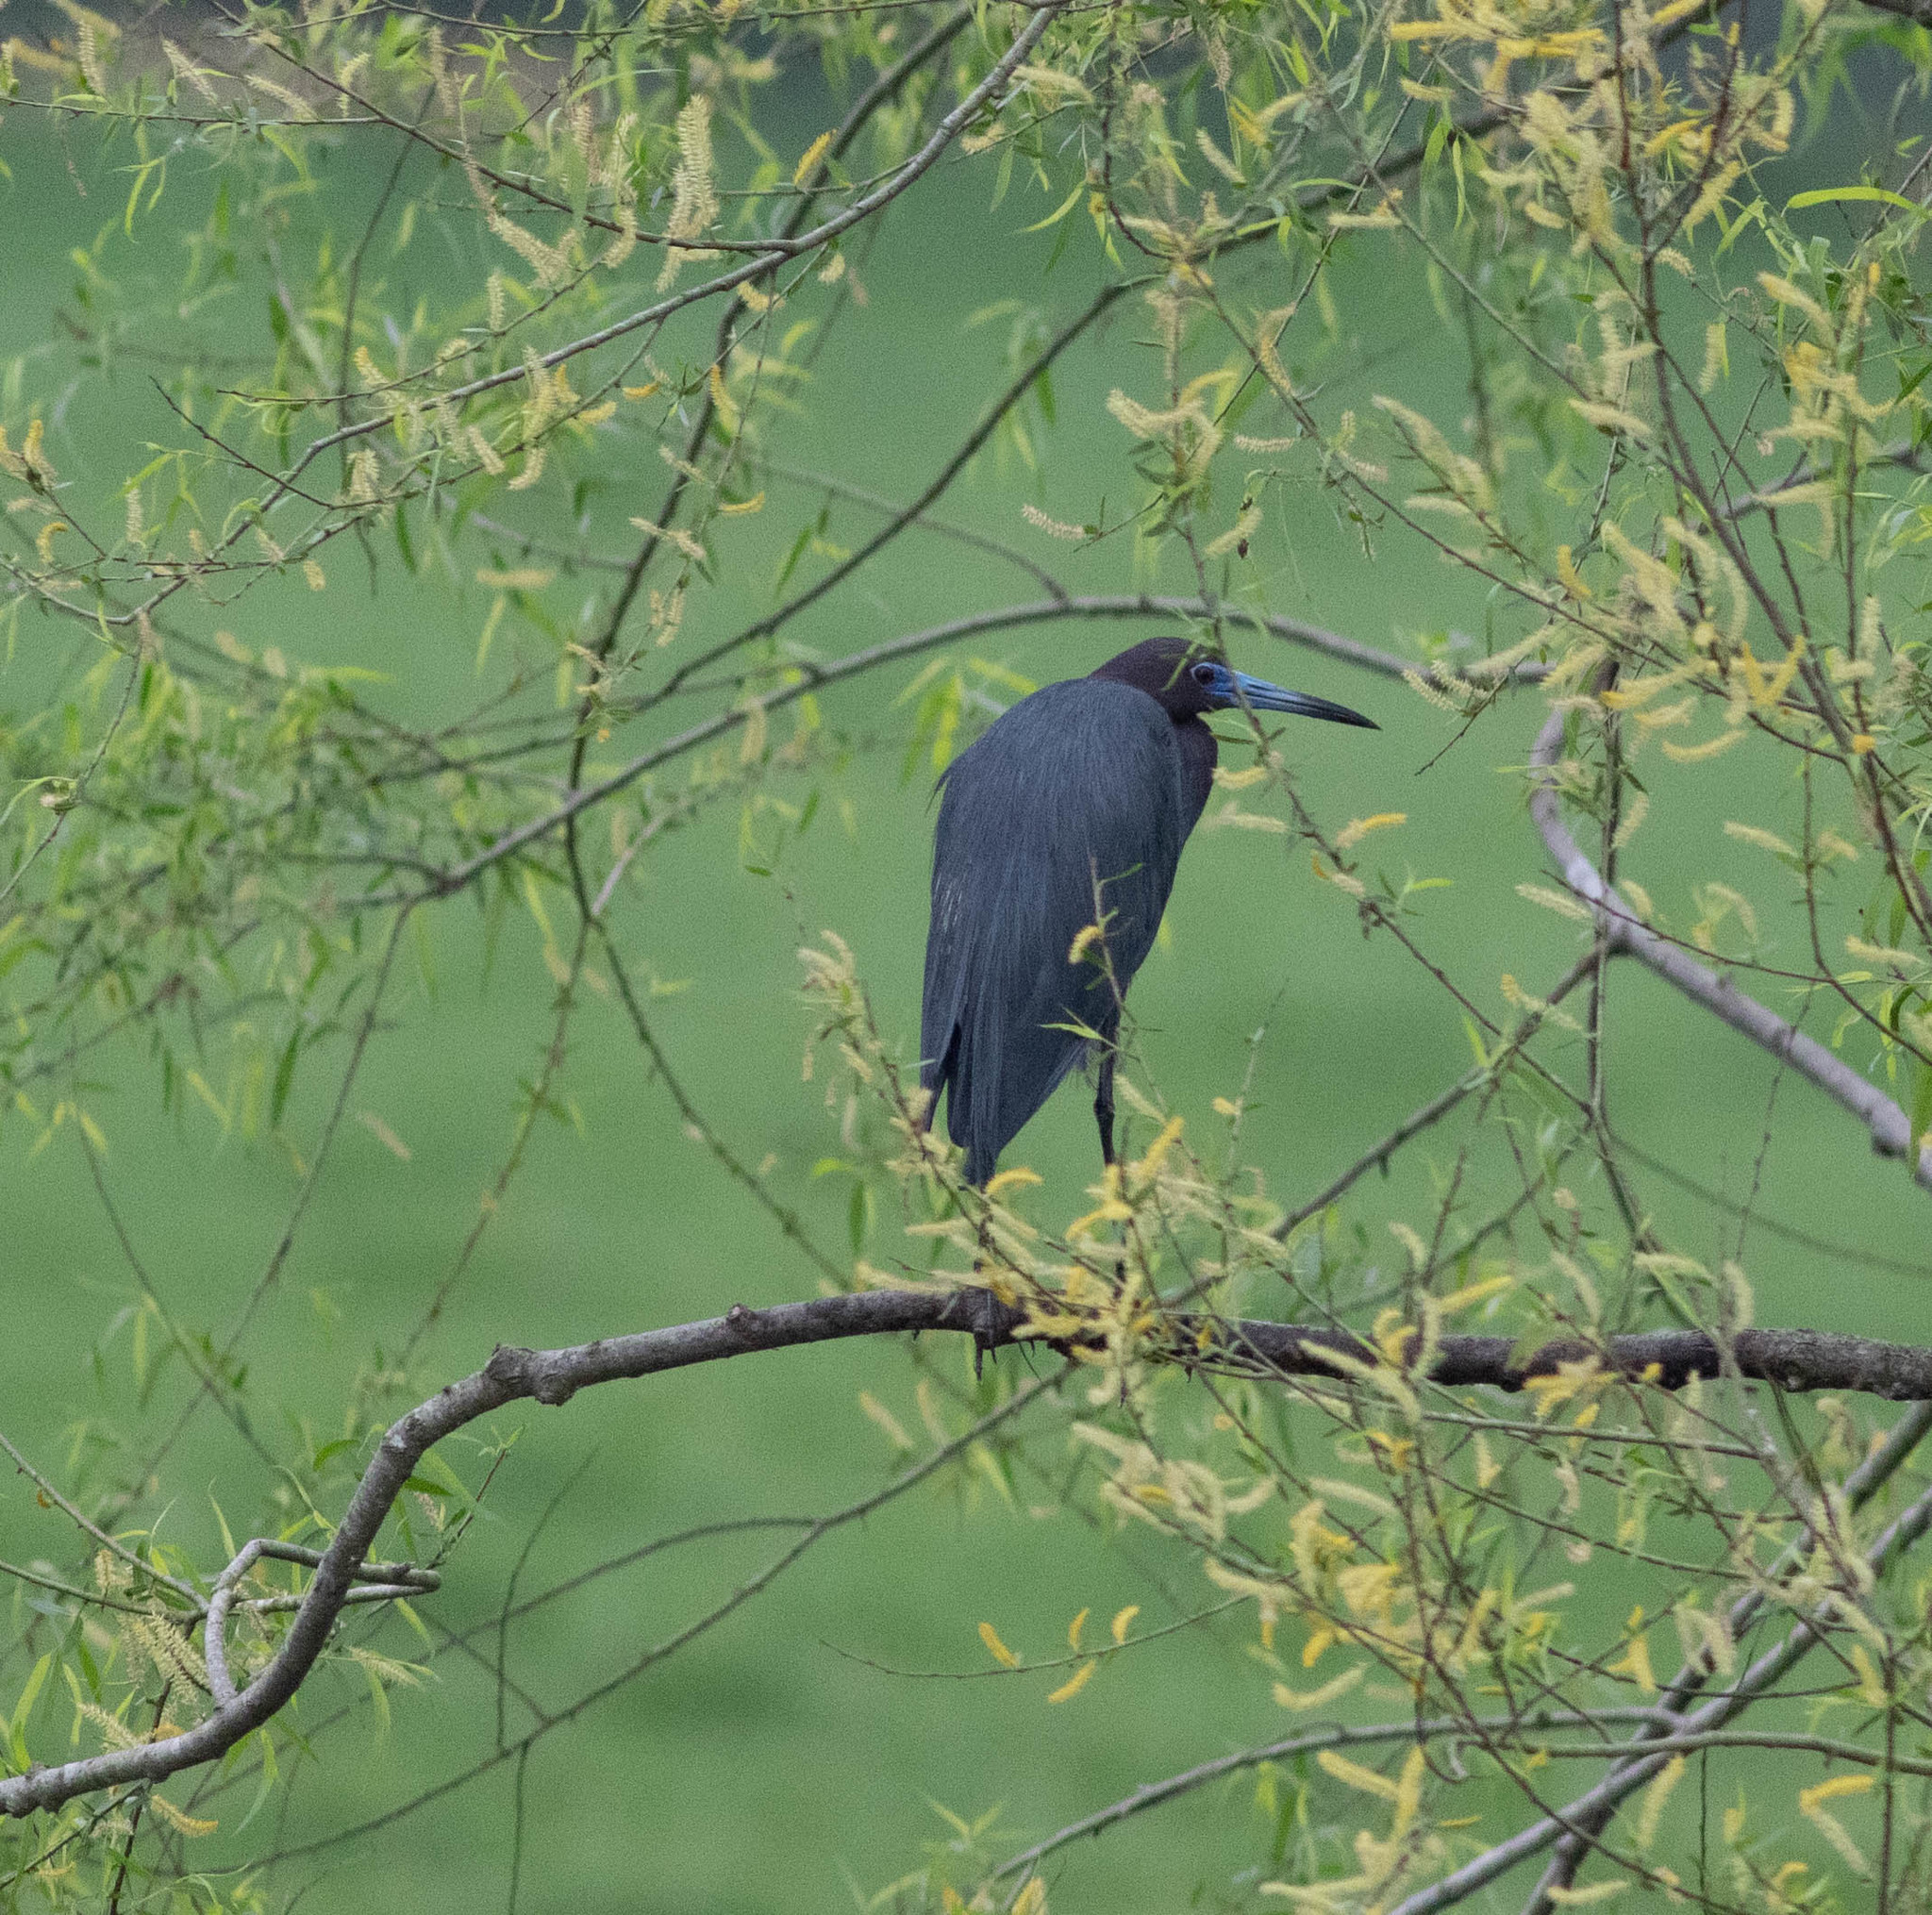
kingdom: Animalia
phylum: Chordata
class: Aves
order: Pelecaniformes
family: Ardeidae
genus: Egretta
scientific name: Egretta caerulea
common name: Little blue heron
